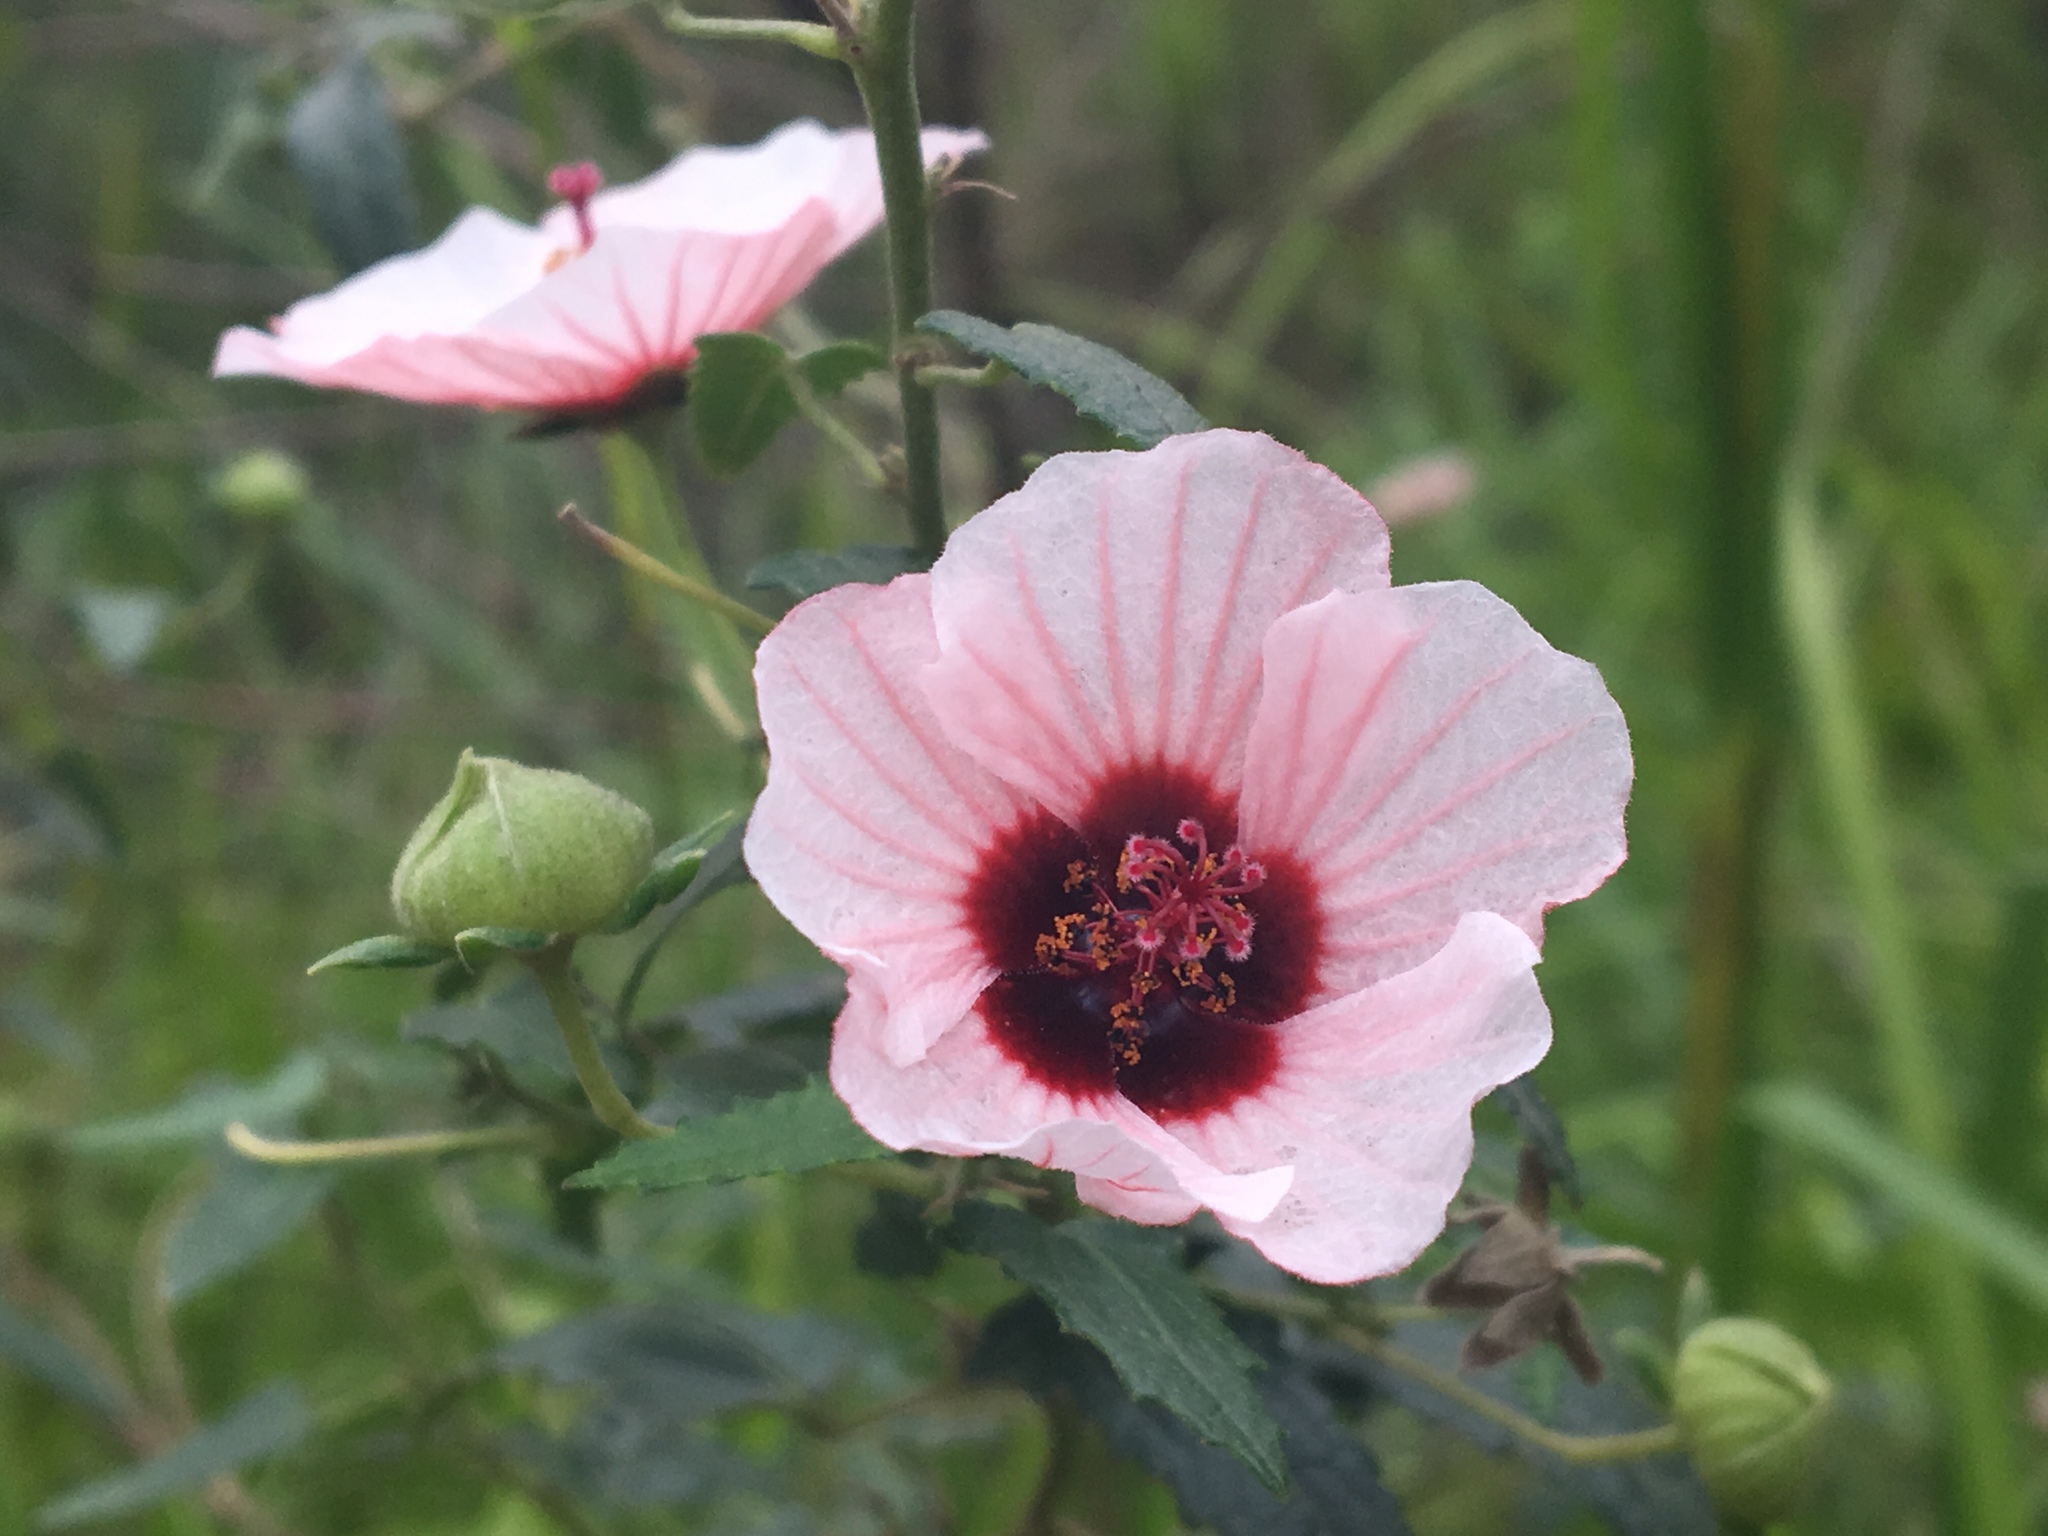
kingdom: Plantae
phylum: Tracheophyta
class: Magnoliopsida
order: Malvales
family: Malvaceae
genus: Pavonia
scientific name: Pavonia hastata
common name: Spearleaf swampmallow
